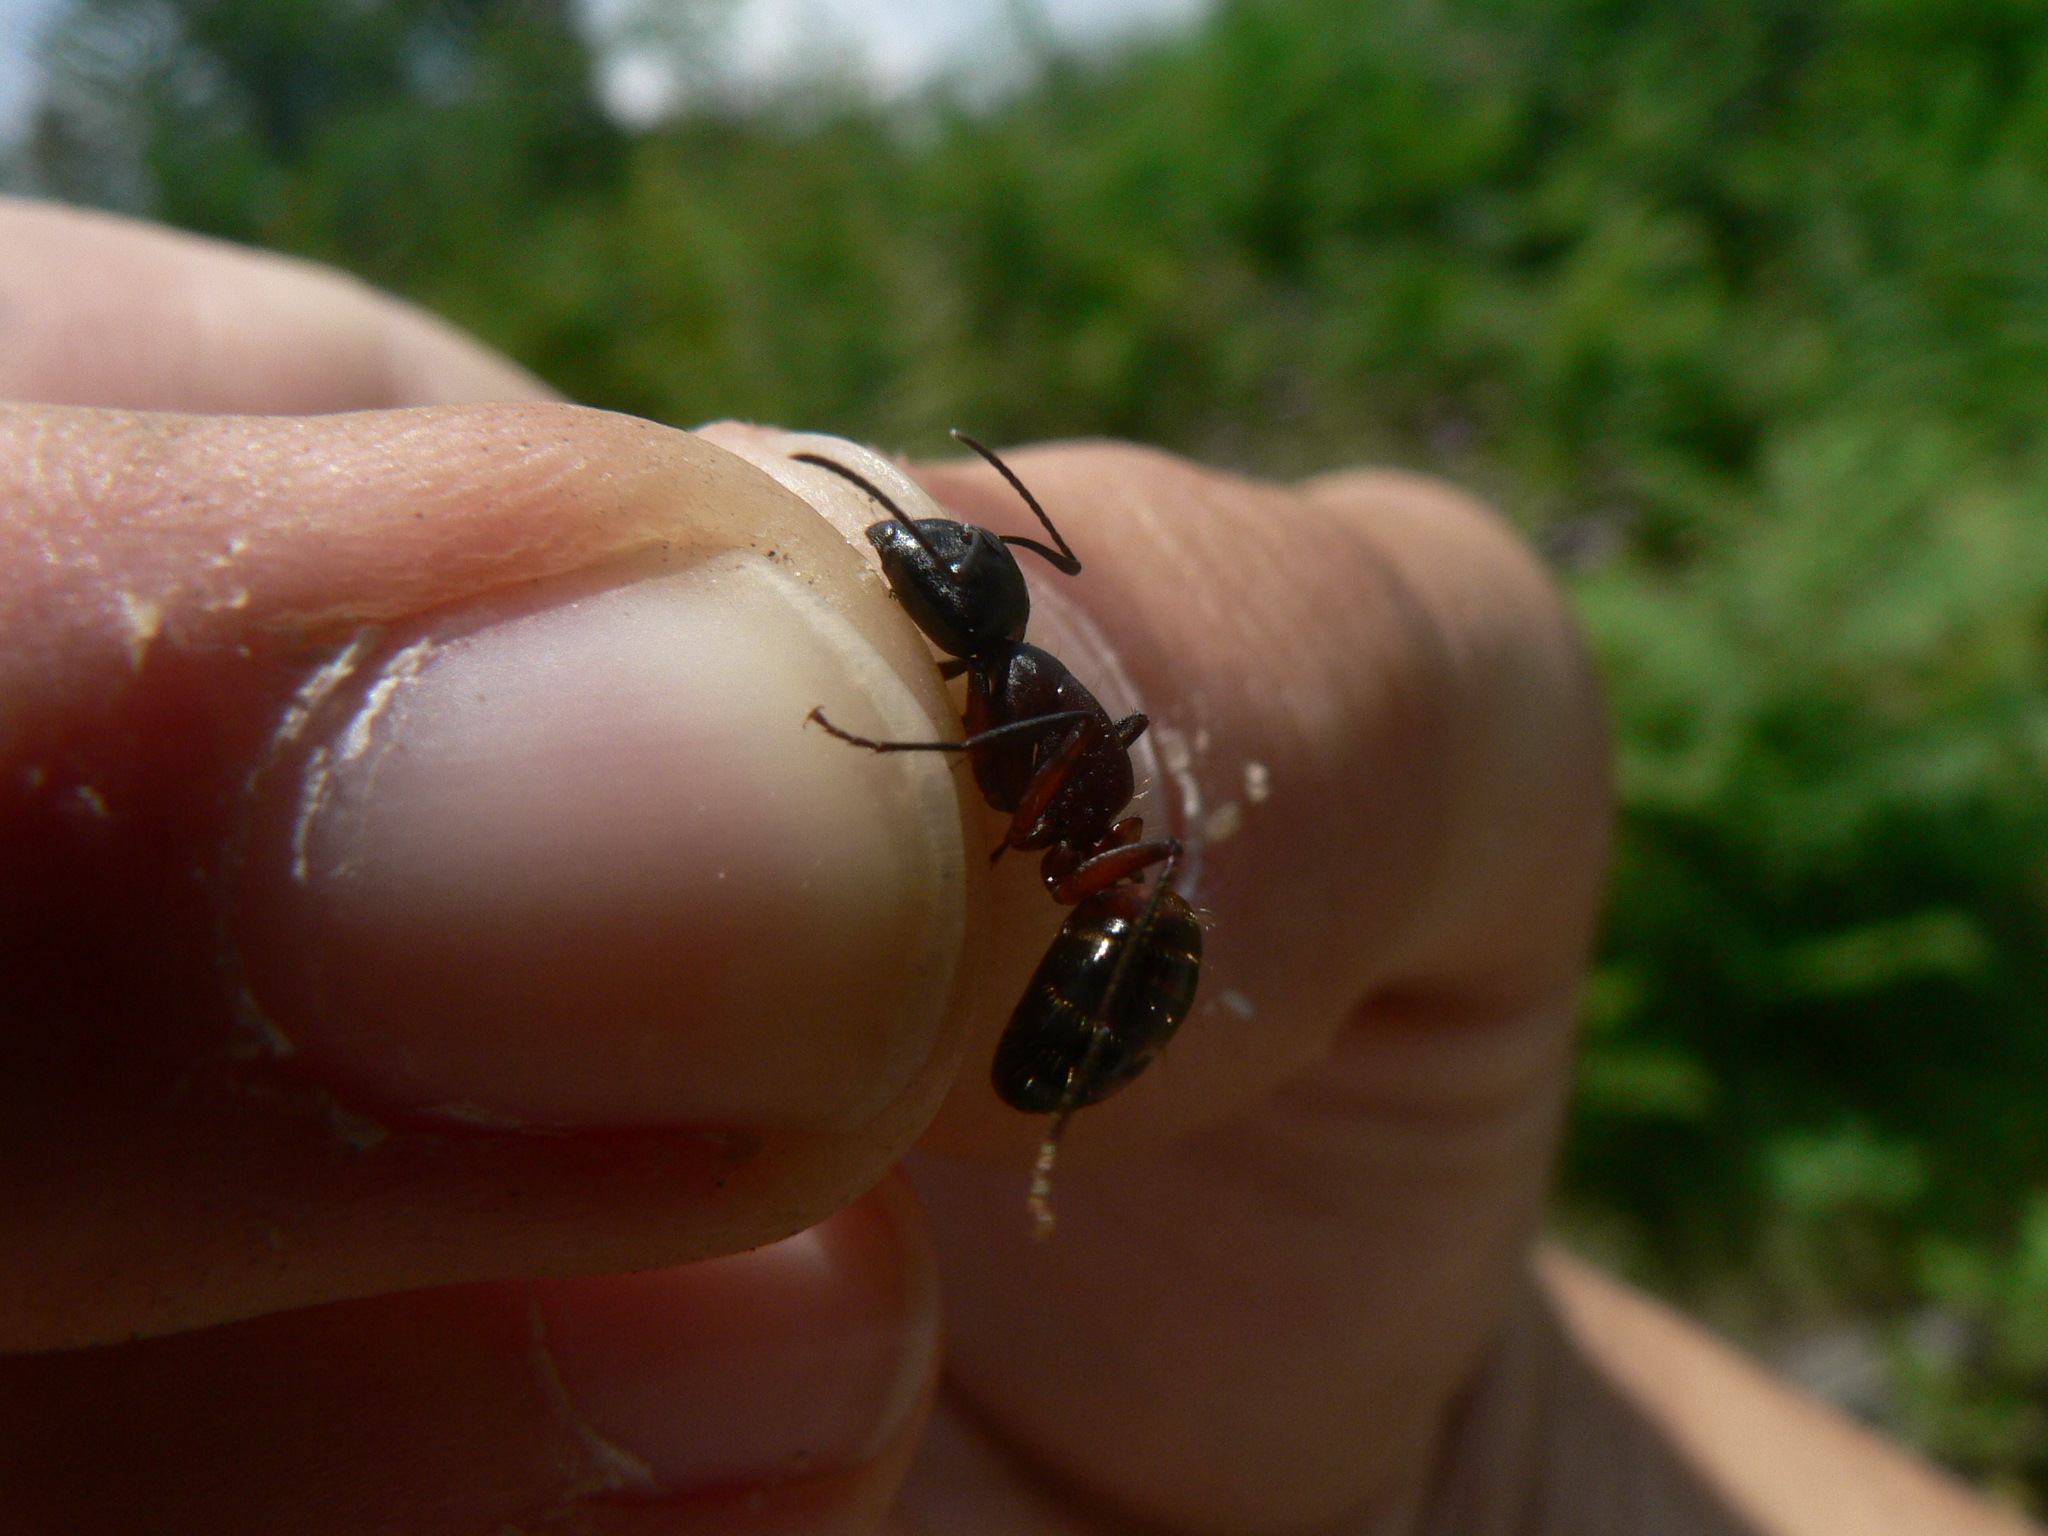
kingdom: Animalia
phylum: Arthropoda
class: Insecta
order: Hymenoptera
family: Formicidae
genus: Camponotus
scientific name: Camponotus ligniperdus
